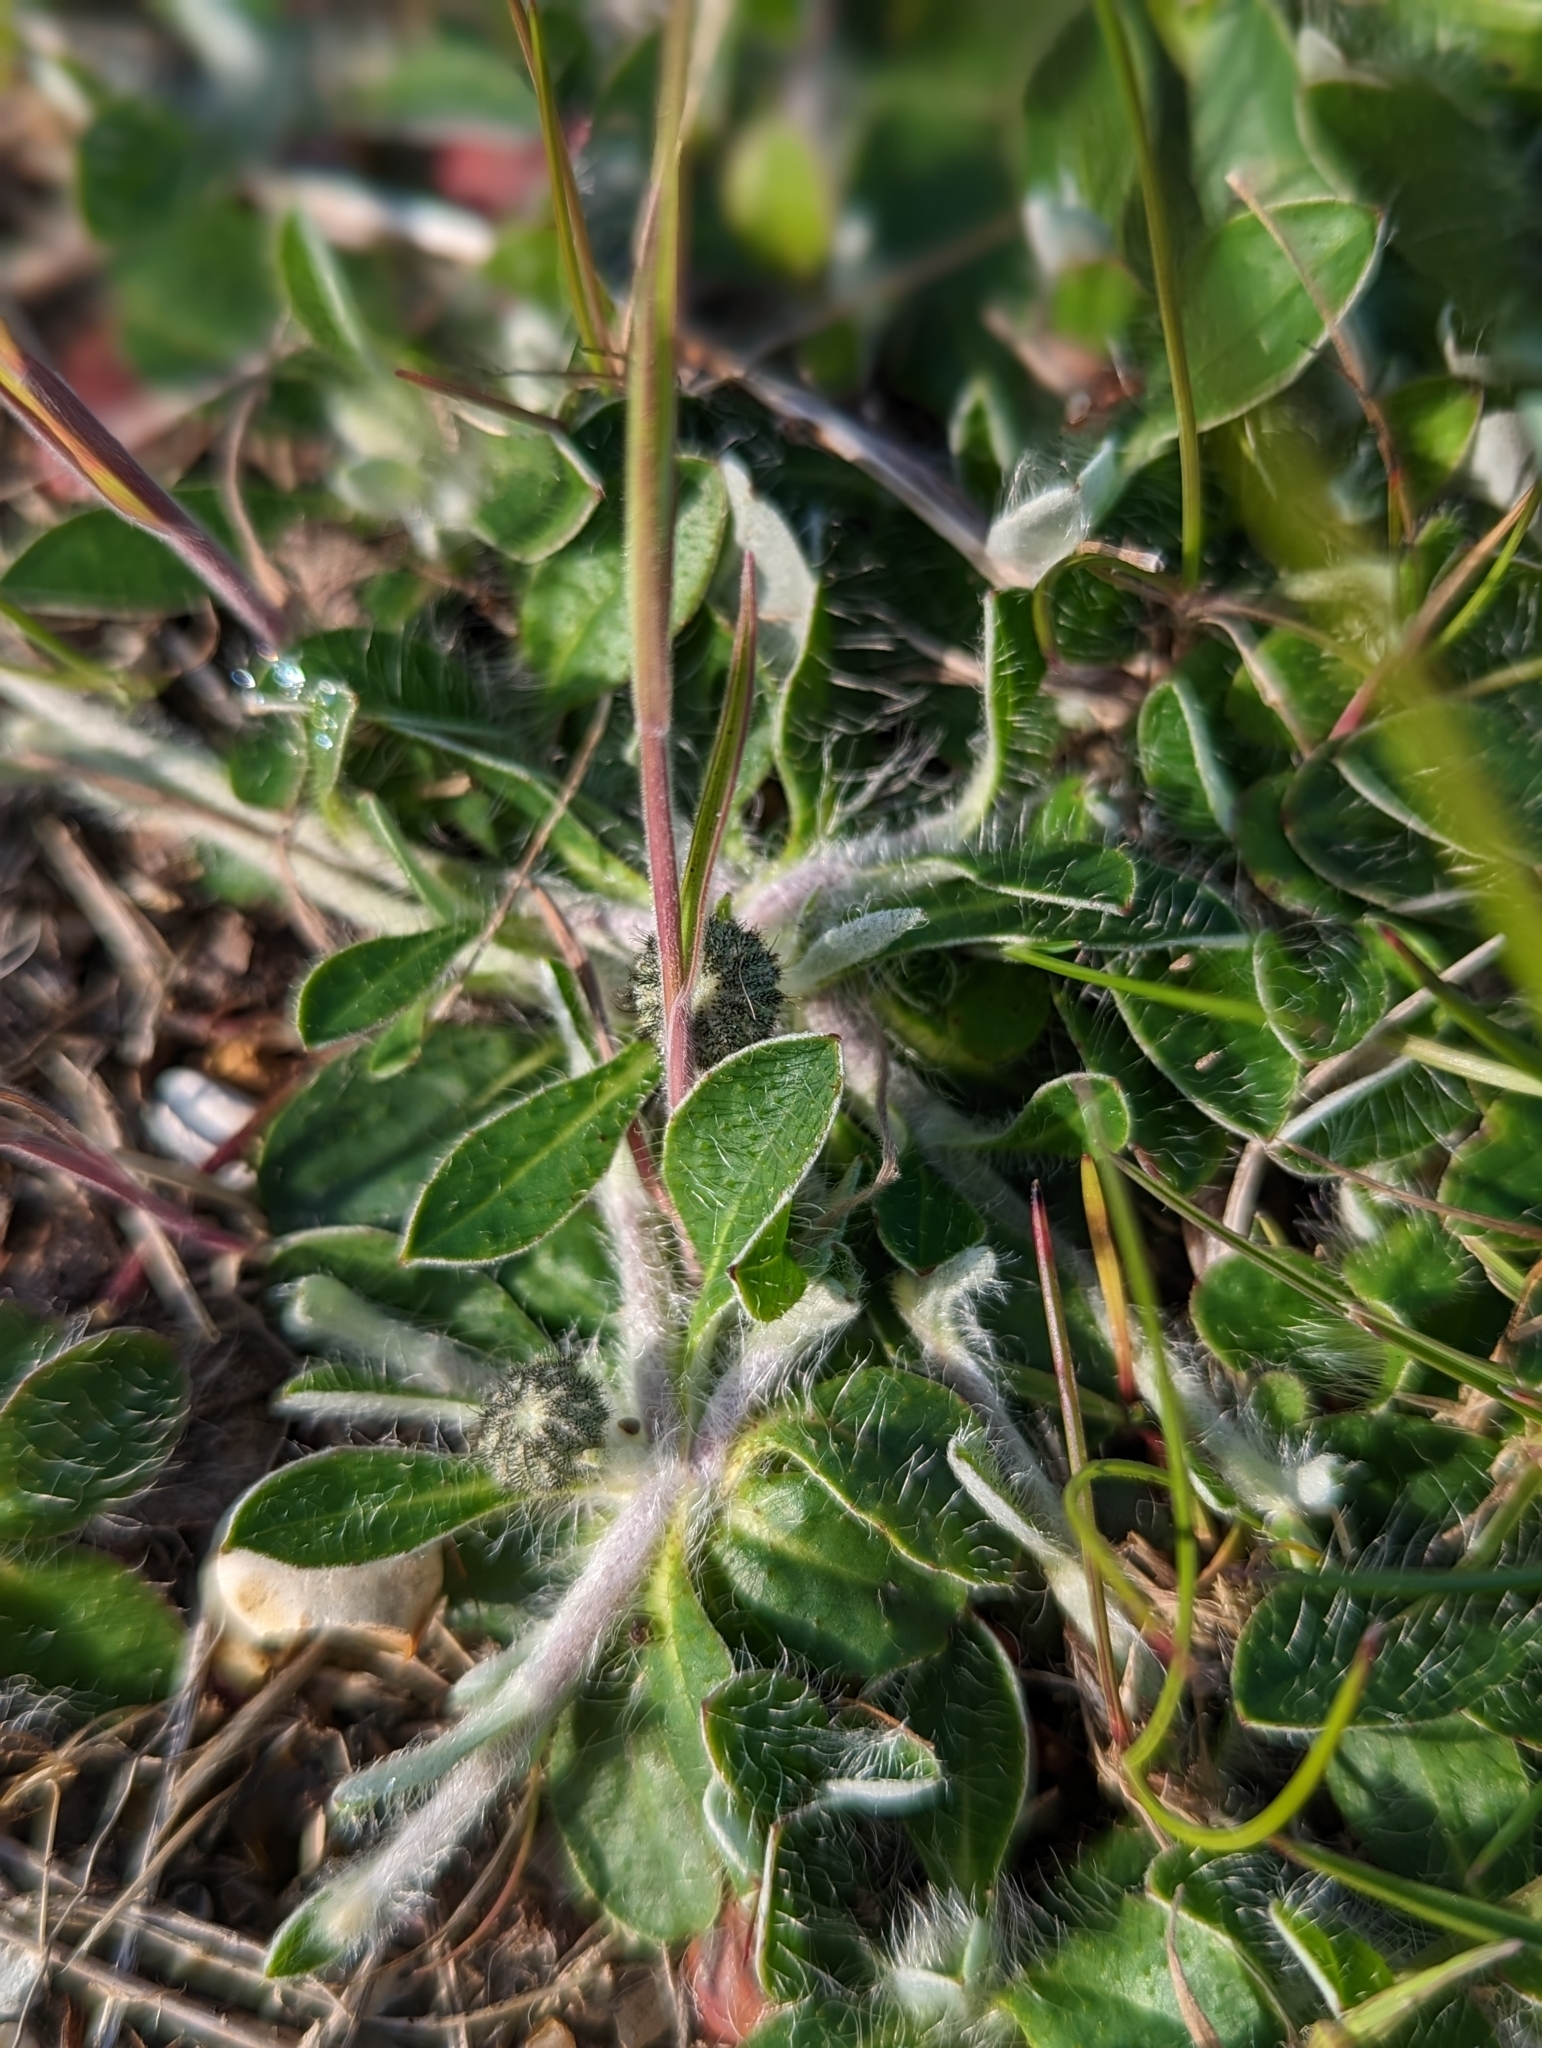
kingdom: Plantae
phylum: Tracheophyta
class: Magnoliopsida
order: Asterales
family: Asteraceae
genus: Pilosella
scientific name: Pilosella officinarum
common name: Mouse-ear hawkweed
